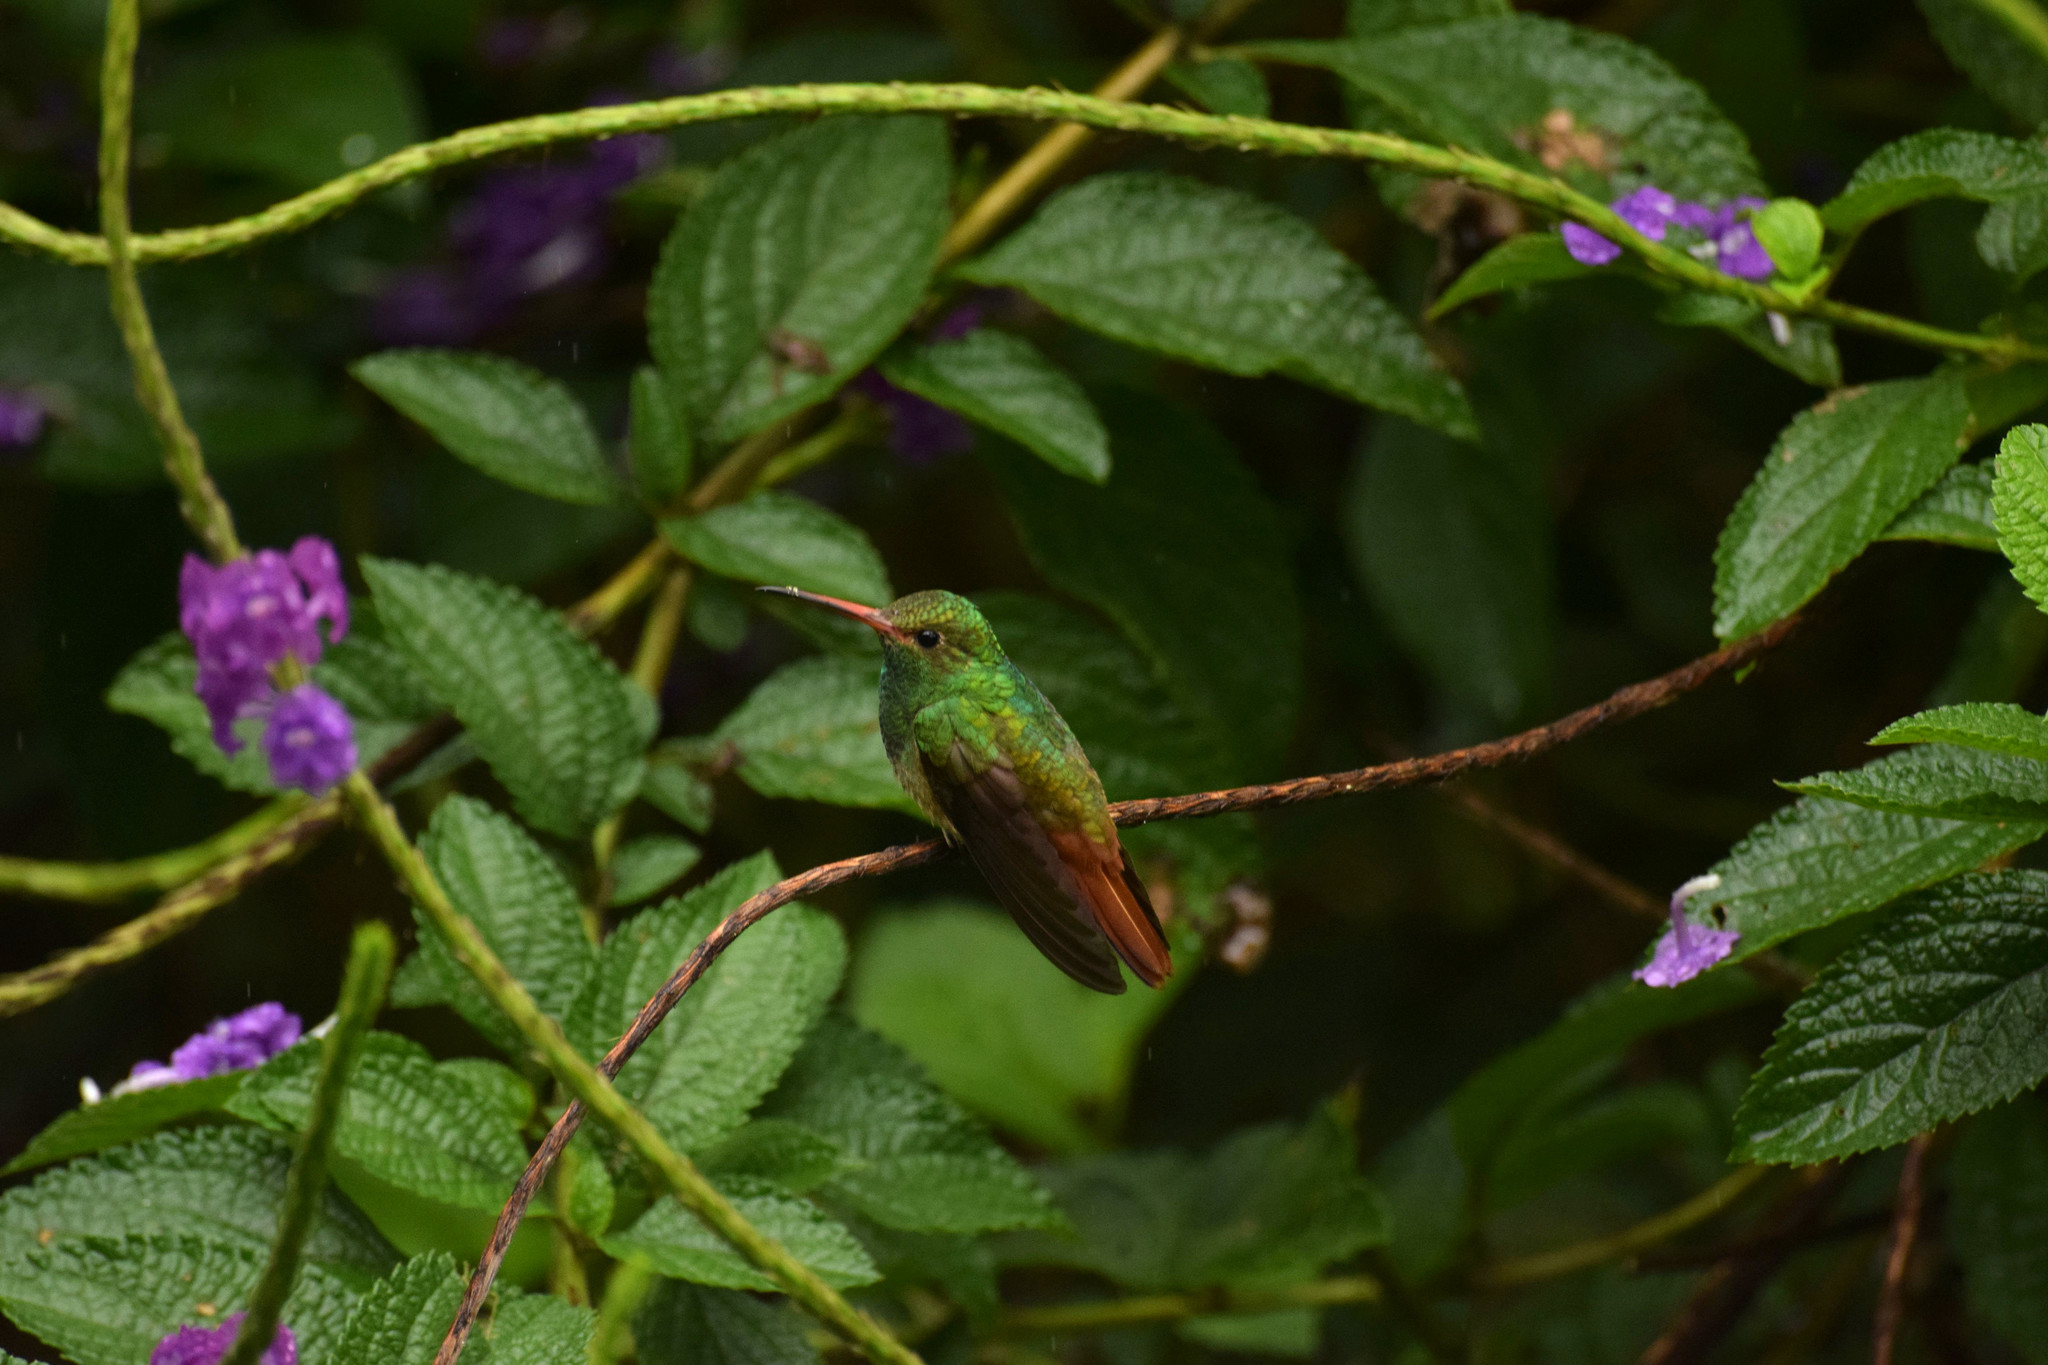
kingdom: Animalia
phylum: Chordata
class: Aves
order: Apodiformes
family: Trochilidae
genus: Amazilia
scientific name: Amazilia tzacatl
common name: Rufous-tailed hummingbird
